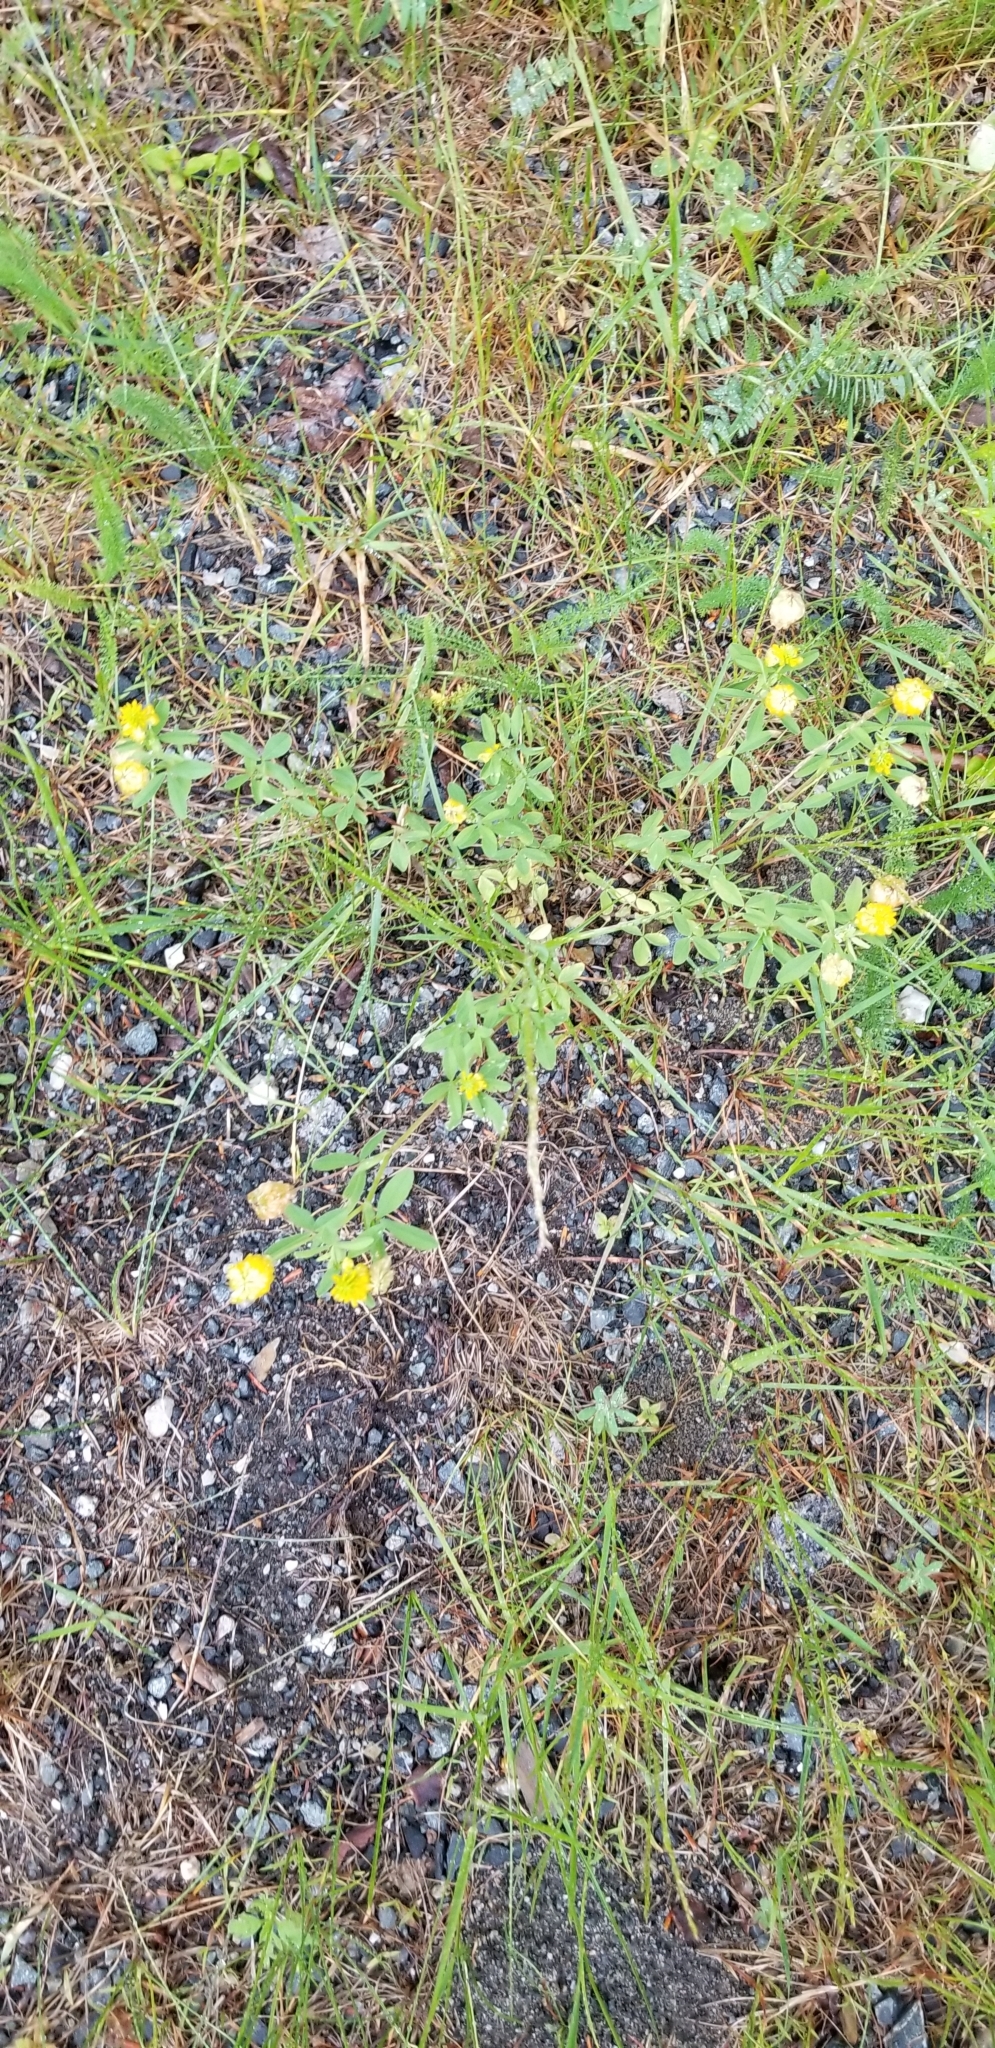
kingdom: Plantae
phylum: Tracheophyta
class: Magnoliopsida
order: Fabales
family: Fabaceae
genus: Trifolium
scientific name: Trifolium aureum
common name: Golden clover
